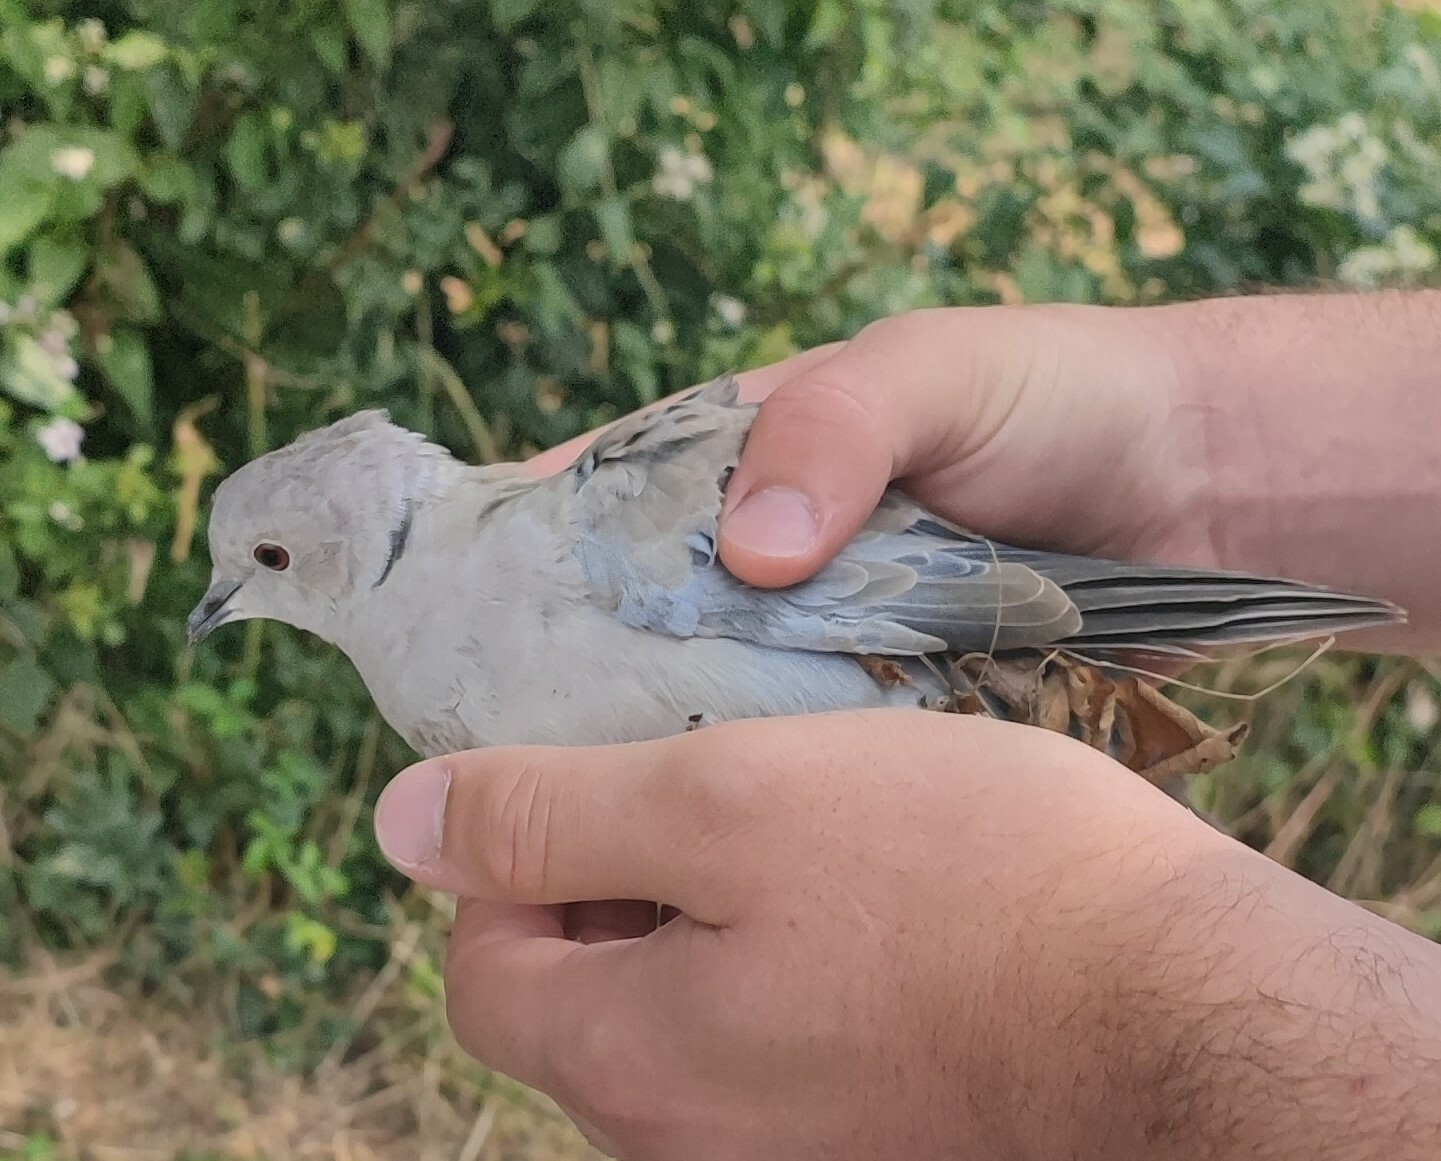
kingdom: Animalia
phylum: Chordata
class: Aves
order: Columbiformes
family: Columbidae
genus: Streptopelia
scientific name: Streptopelia decaocto
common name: Eurasian collared dove
